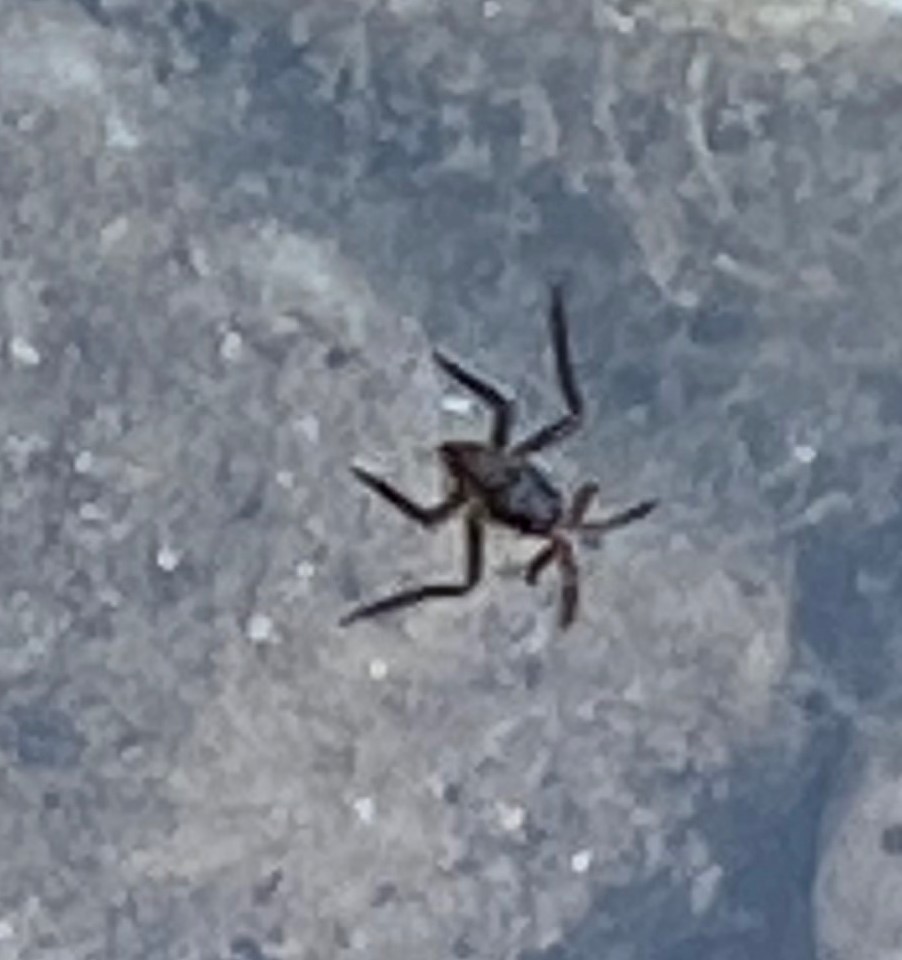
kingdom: Animalia
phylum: Arthropoda
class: Insecta
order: Hemiptera
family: Veliidae
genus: Rhagovelia
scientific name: Rhagovelia
